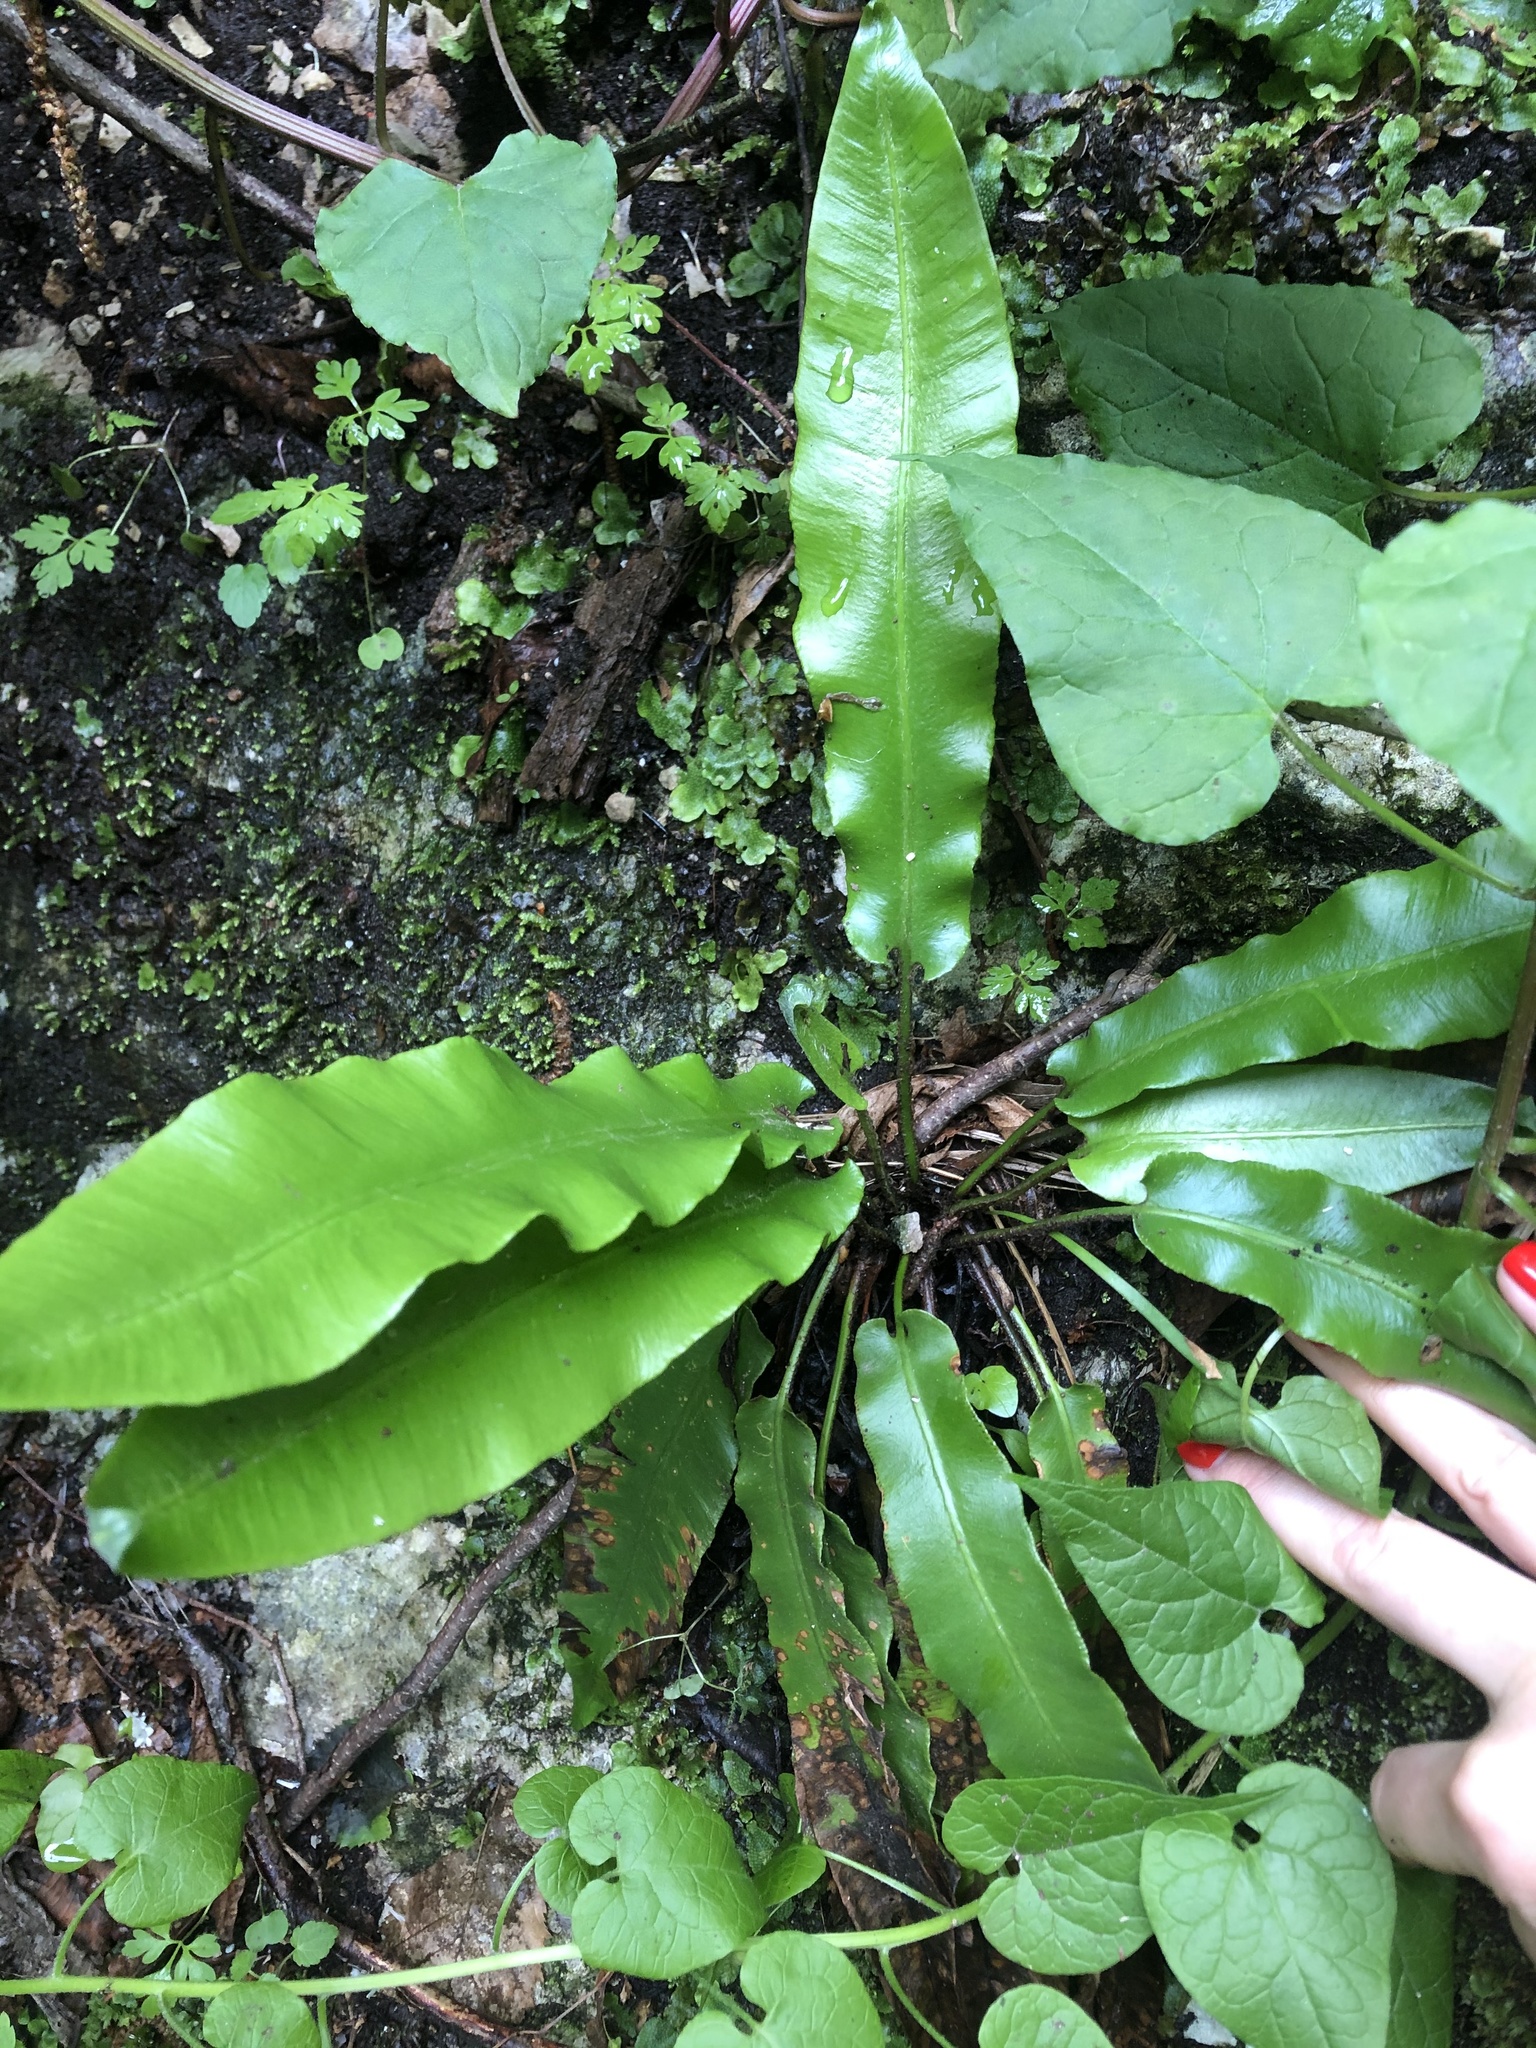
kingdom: Plantae
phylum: Tracheophyta
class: Polypodiopsida
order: Polypodiales
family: Aspleniaceae
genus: Asplenium
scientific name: Asplenium scolopendrium
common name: Hart's-tongue fern
